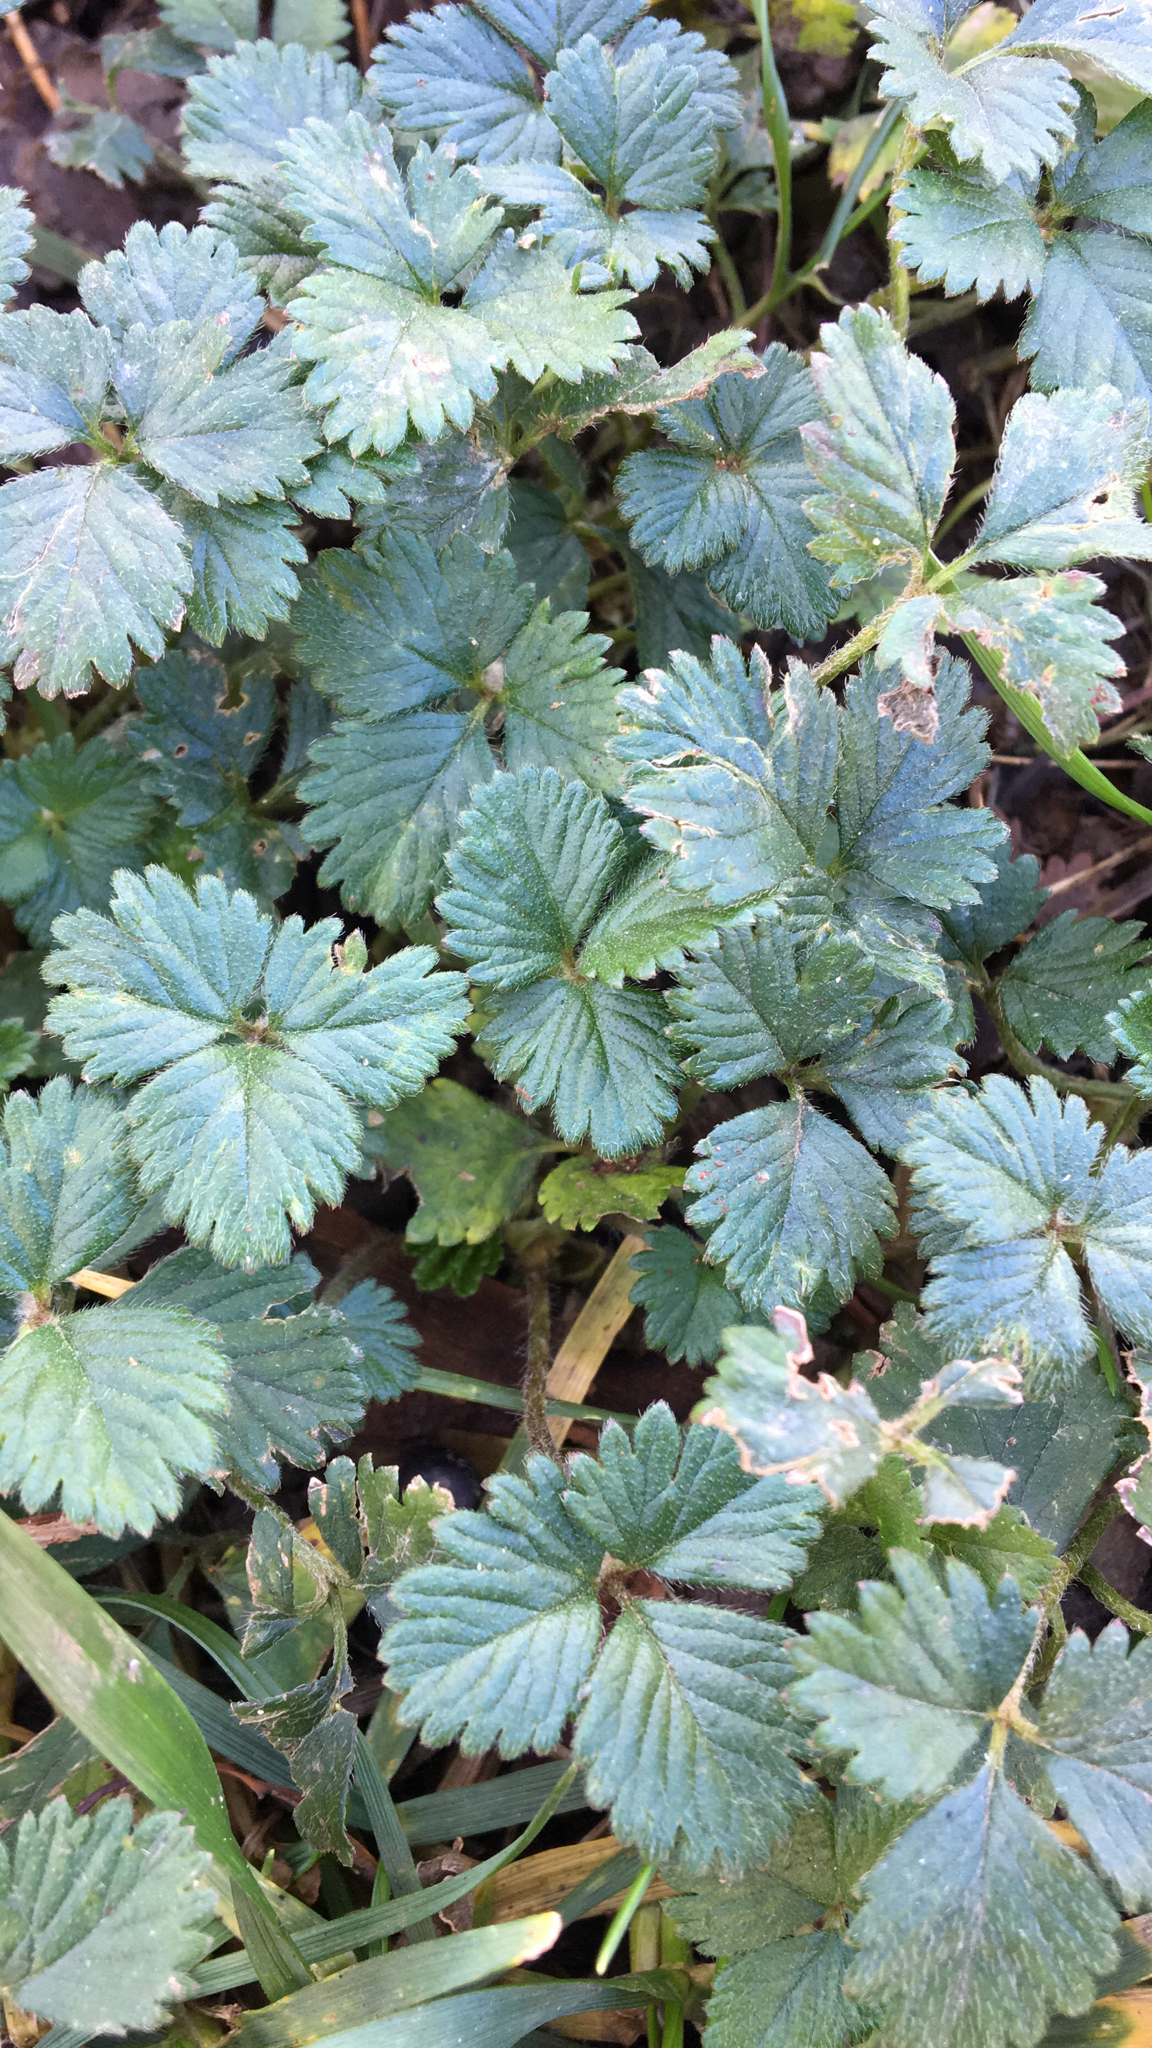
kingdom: Plantae
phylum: Tracheophyta
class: Magnoliopsida
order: Rosales
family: Rosaceae
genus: Potentilla
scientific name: Potentilla indica
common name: Yellow-flowered strawberry
